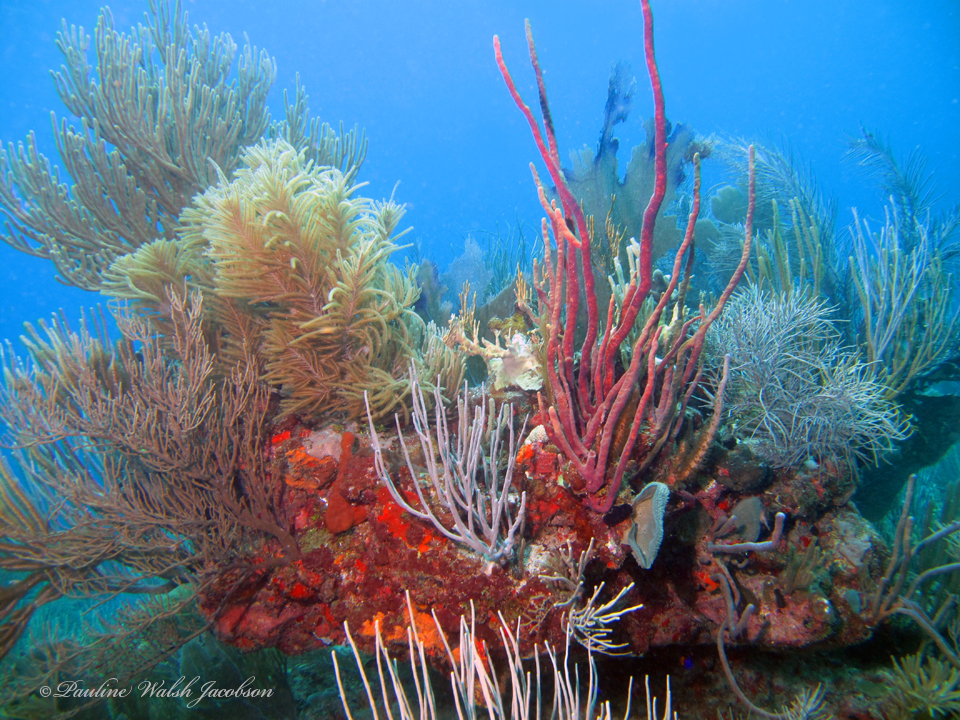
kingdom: Animalia
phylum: Porifera
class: Demospongiae
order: Verongiida
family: Aplysinidae
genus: Aplysina
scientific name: Aplysina cauliformis
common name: Branching candle sponge
